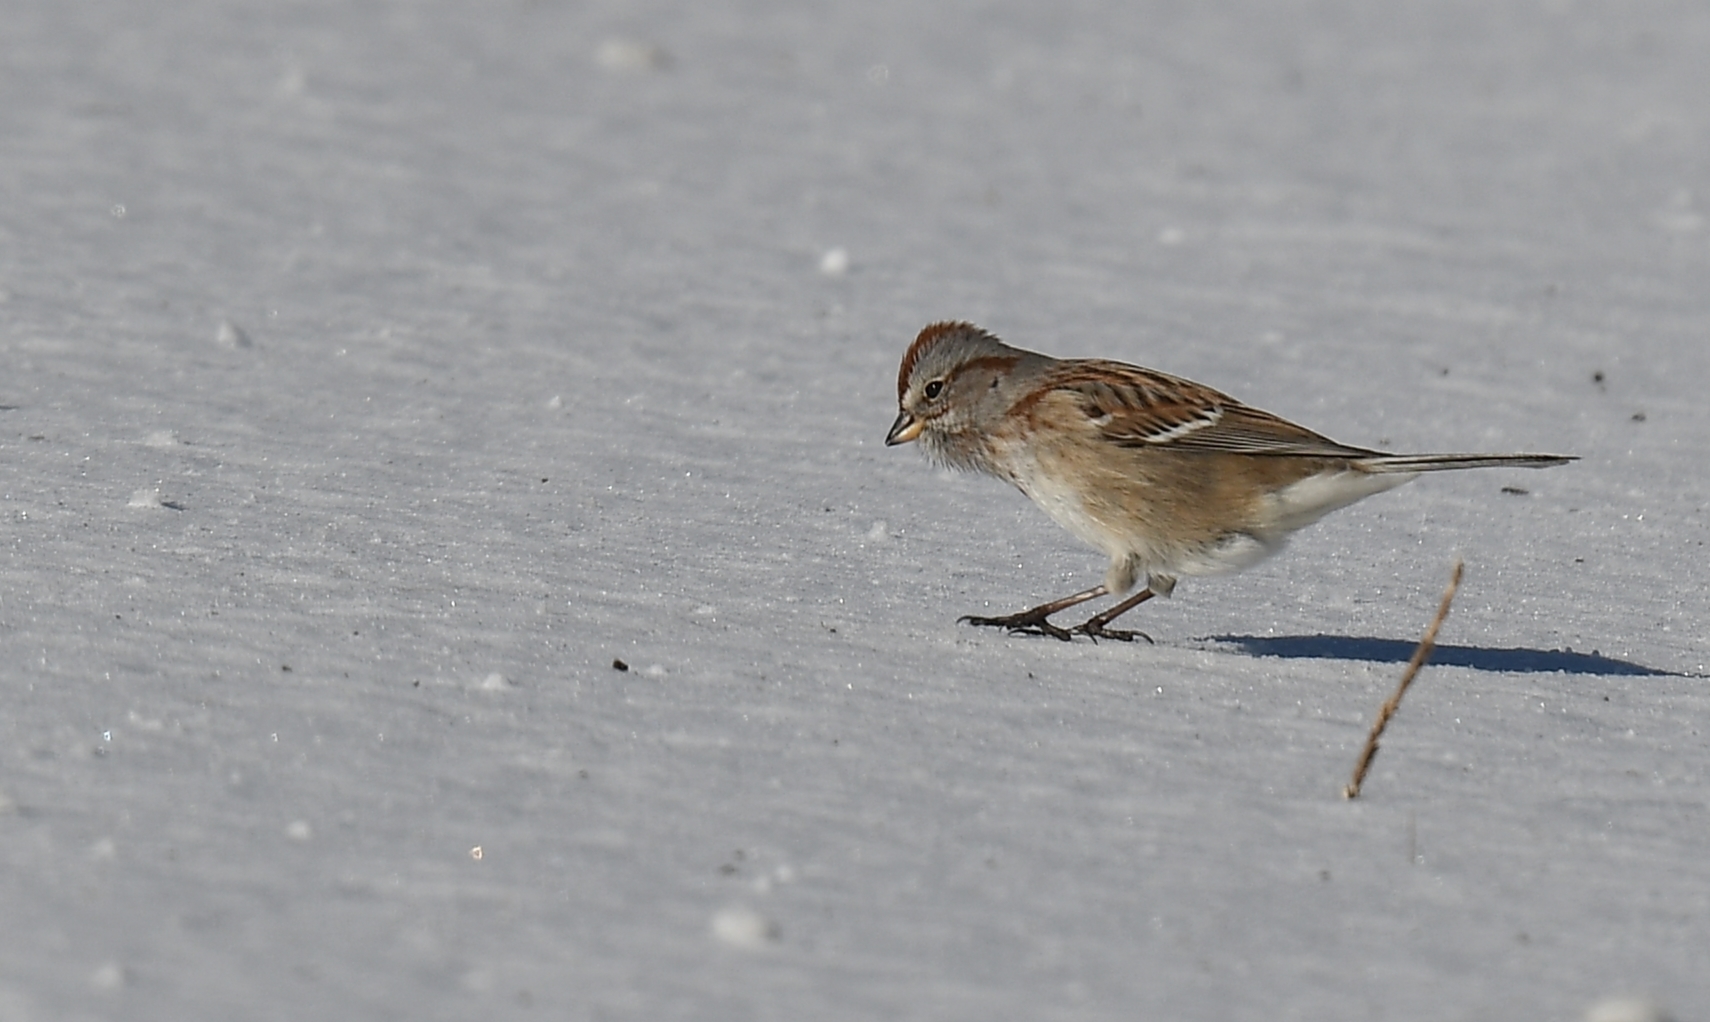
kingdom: Animalia
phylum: Chordata
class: Aves
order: Passeriformes
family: Passerellidae
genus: Spizelloides
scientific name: Spizelloides arborea
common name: American tree sparrow
